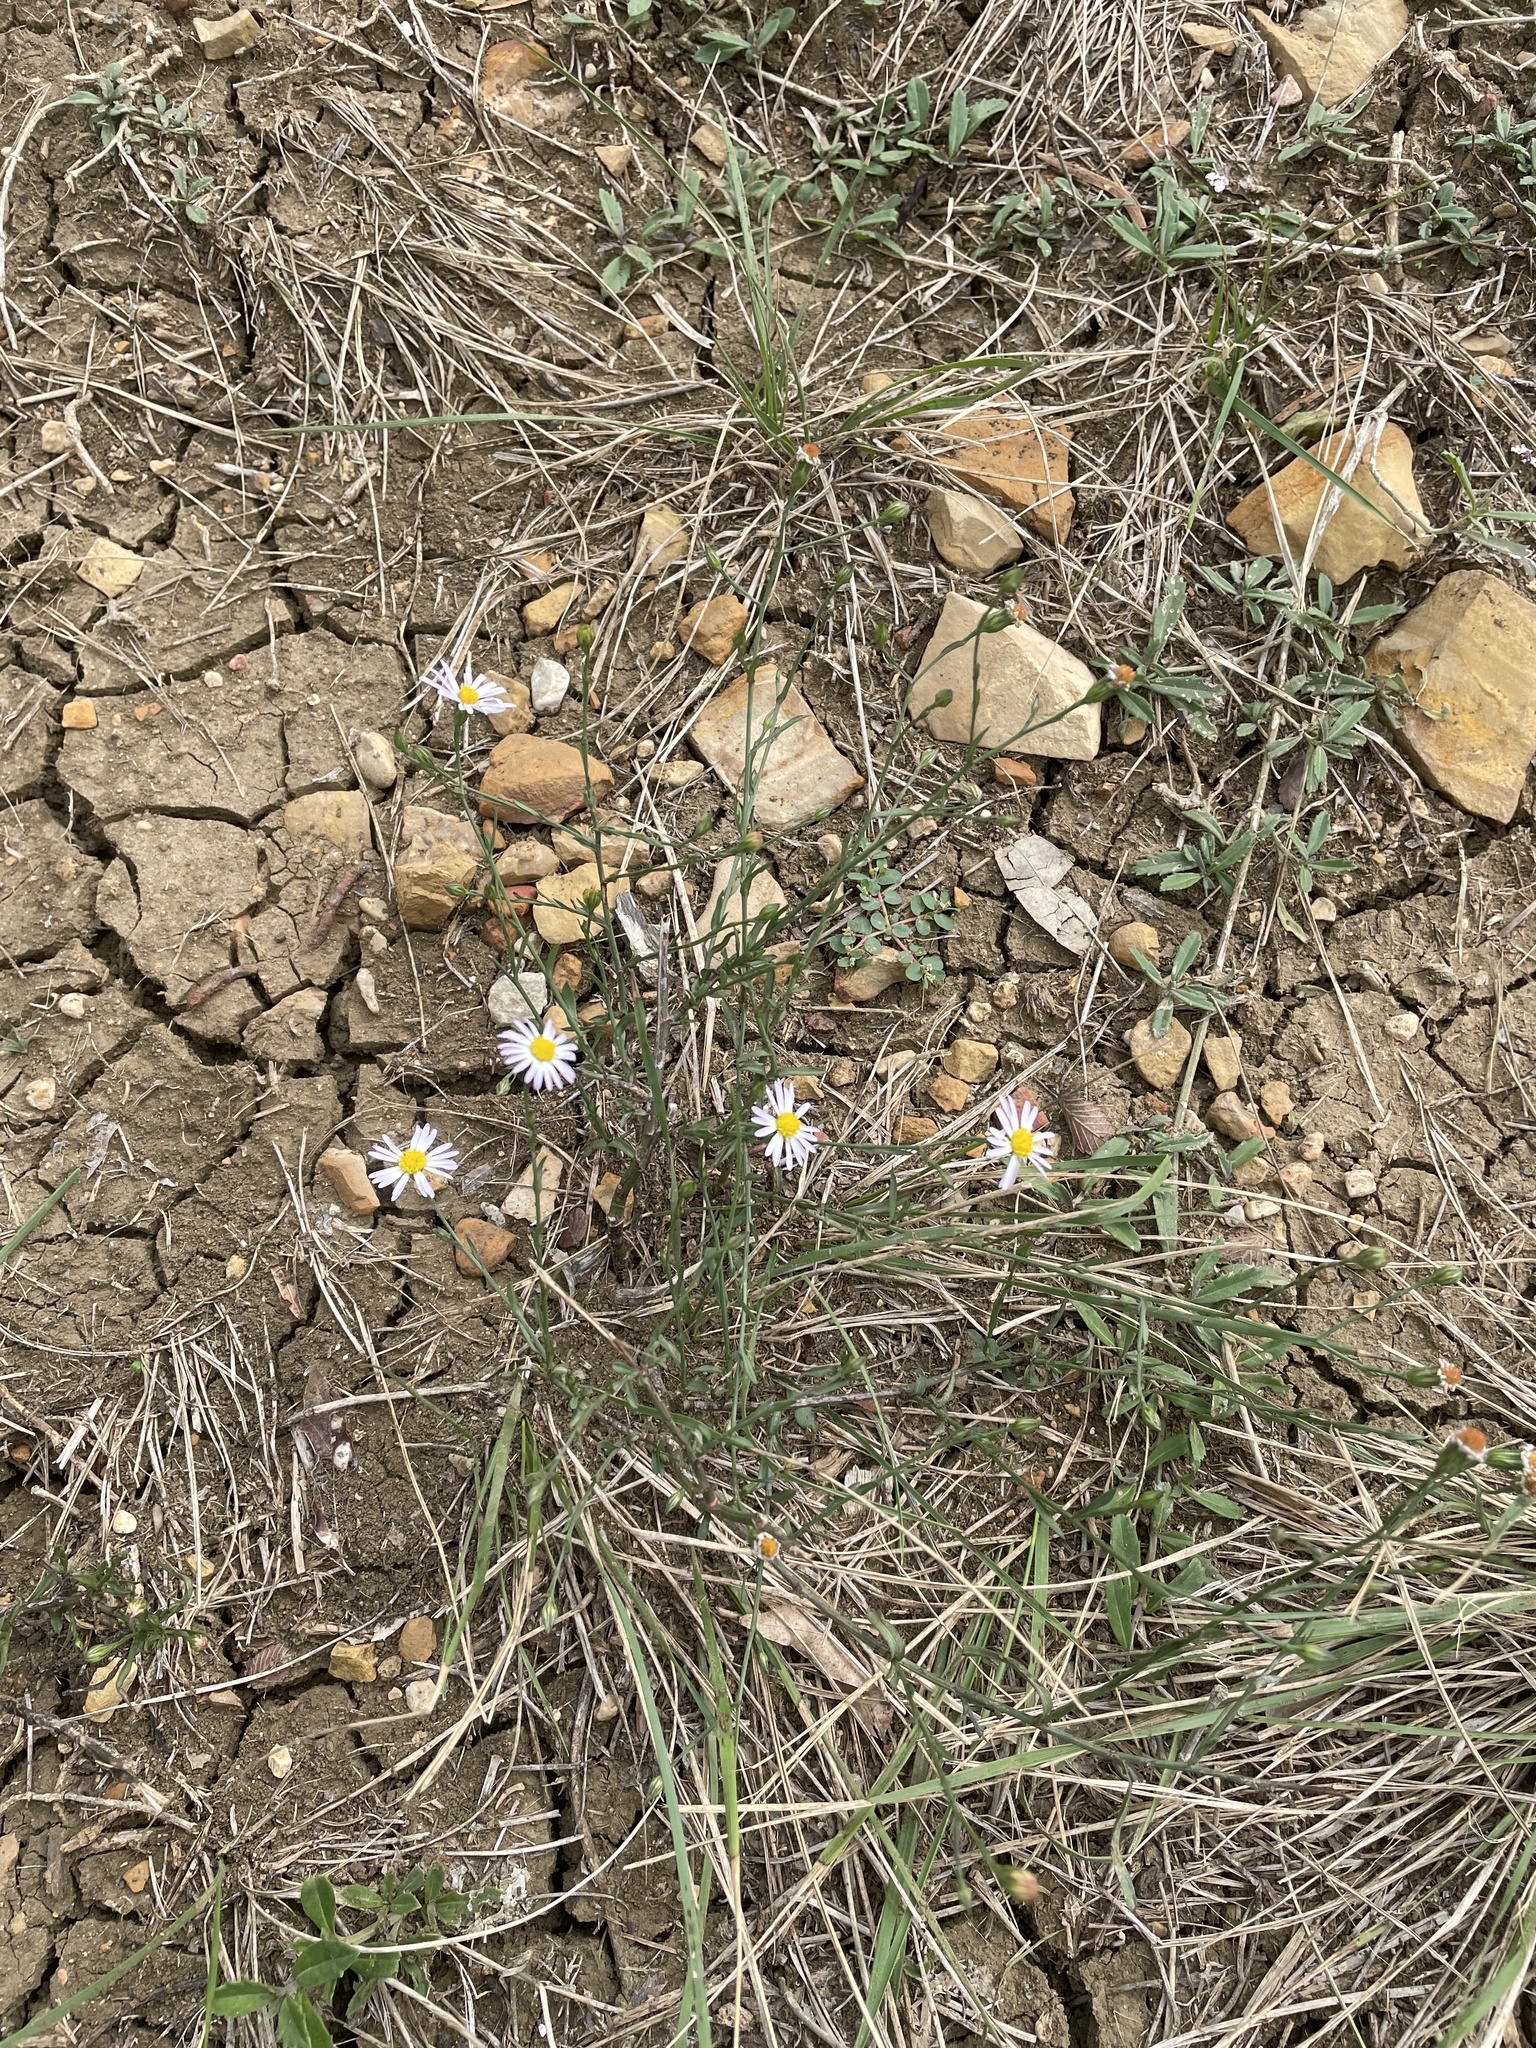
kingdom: Plantae
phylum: Tracheophyta
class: Magnoliopsida
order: Asterales
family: Asteraceae
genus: Symphyotrichum
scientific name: Symphyotrichum divaricatum
